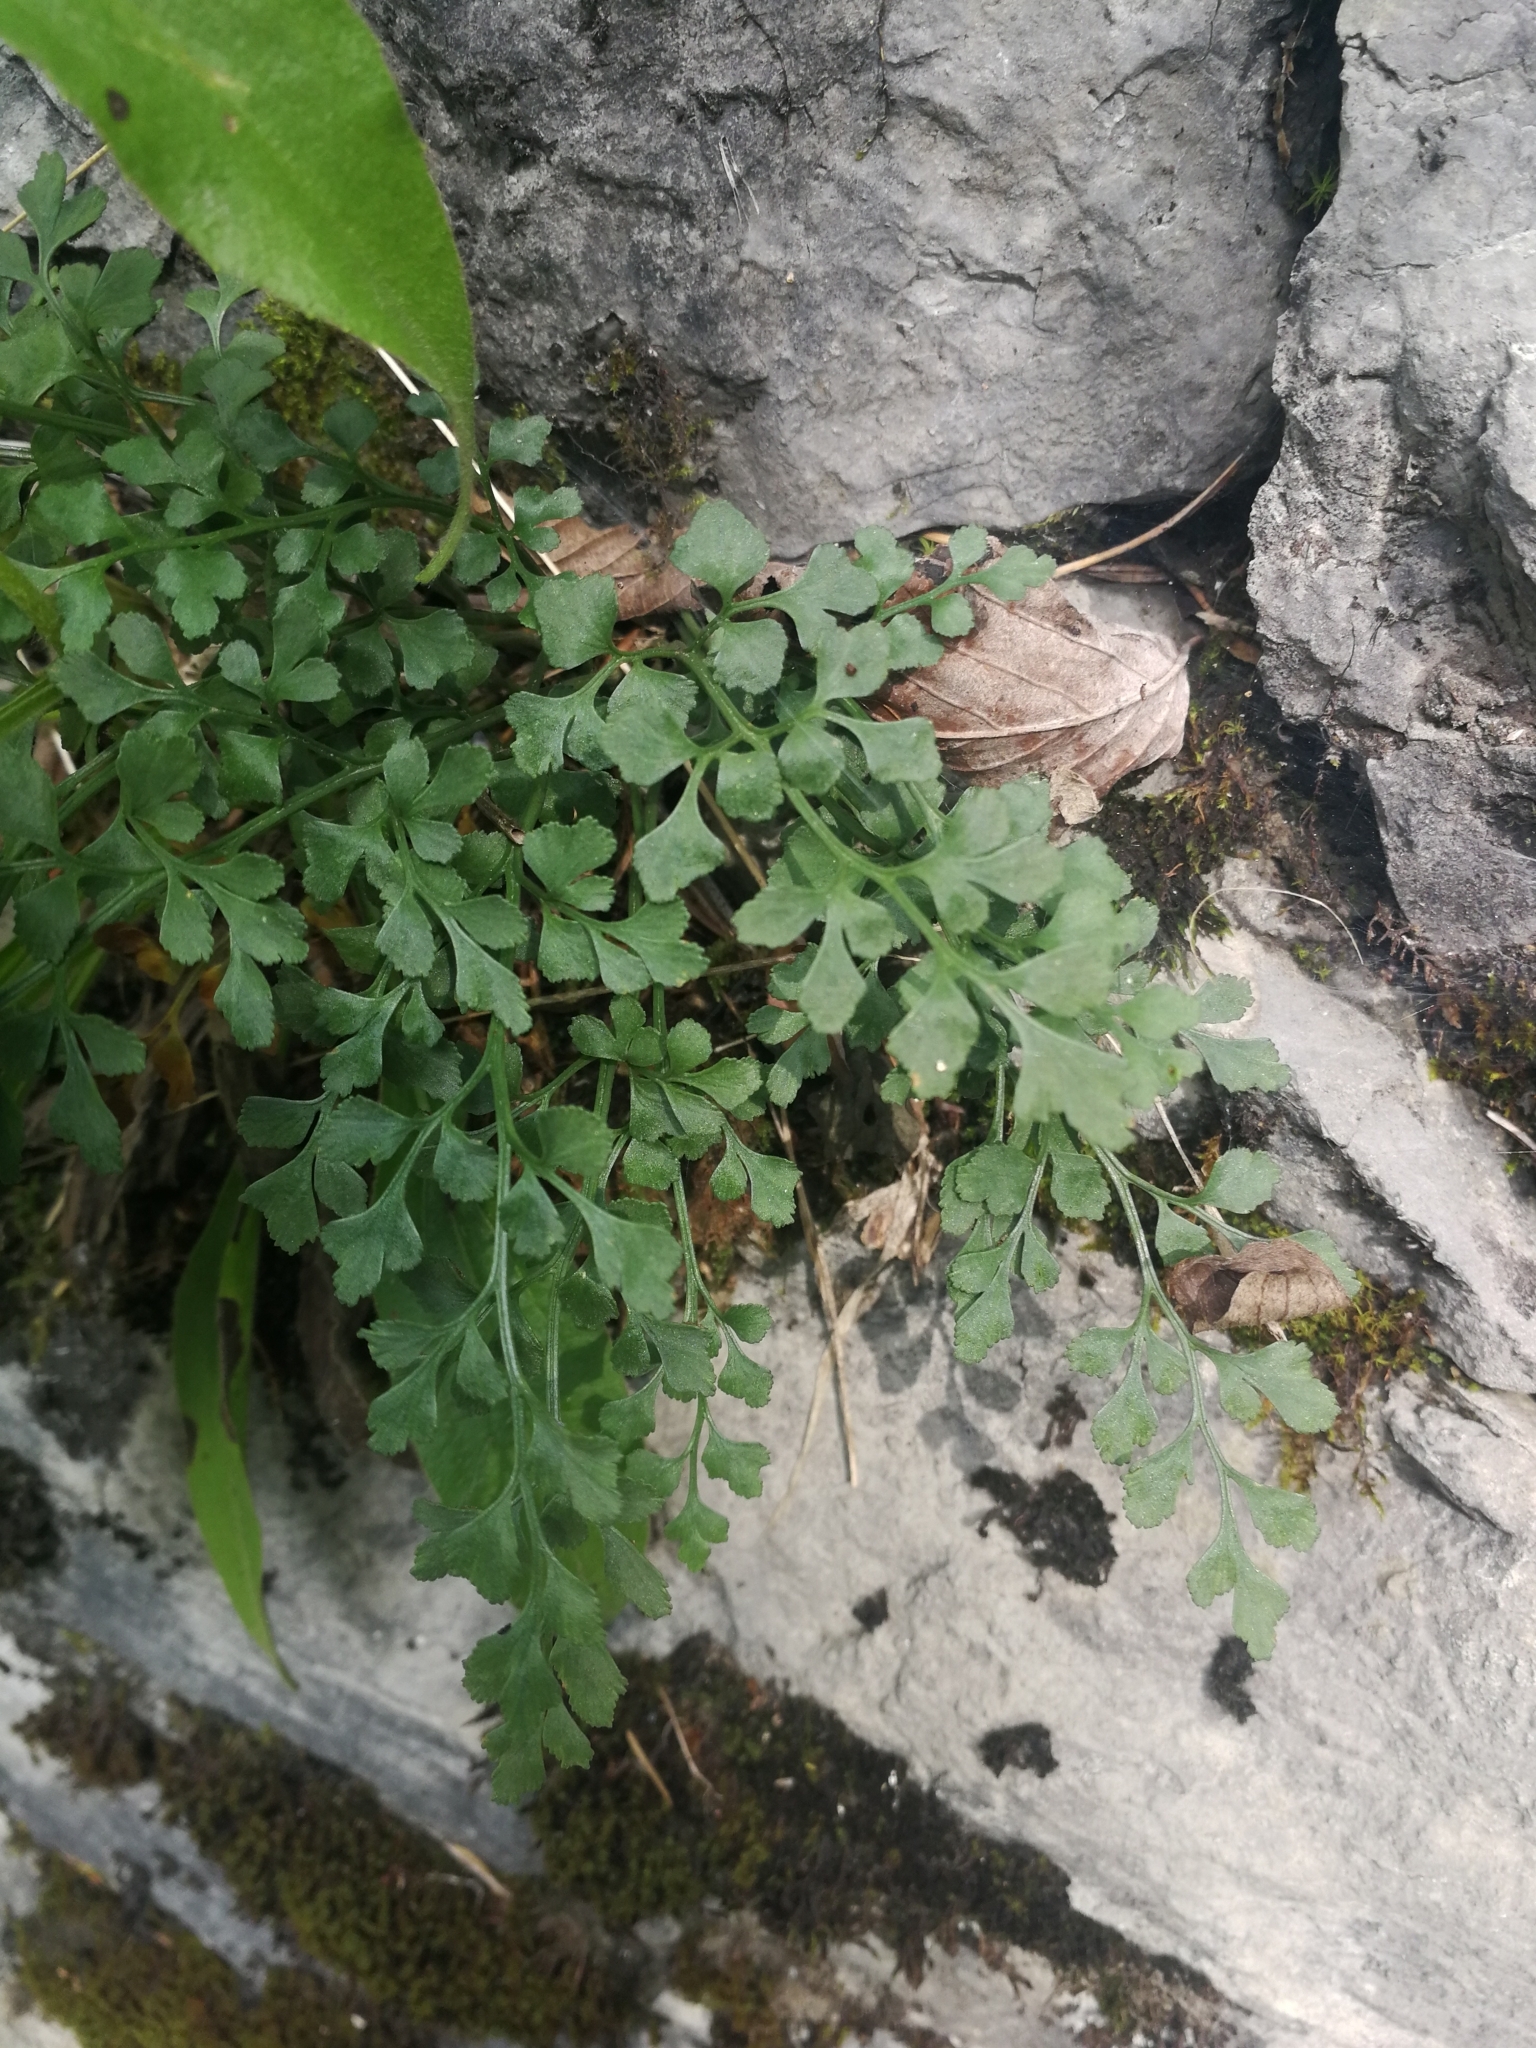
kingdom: Plantae
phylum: Tracheophyta
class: Polypodiopsida
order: Polypodiales
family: Aspleniaceae
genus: Asplenium
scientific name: Asplenium ruta-muraria
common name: Wall-rue
